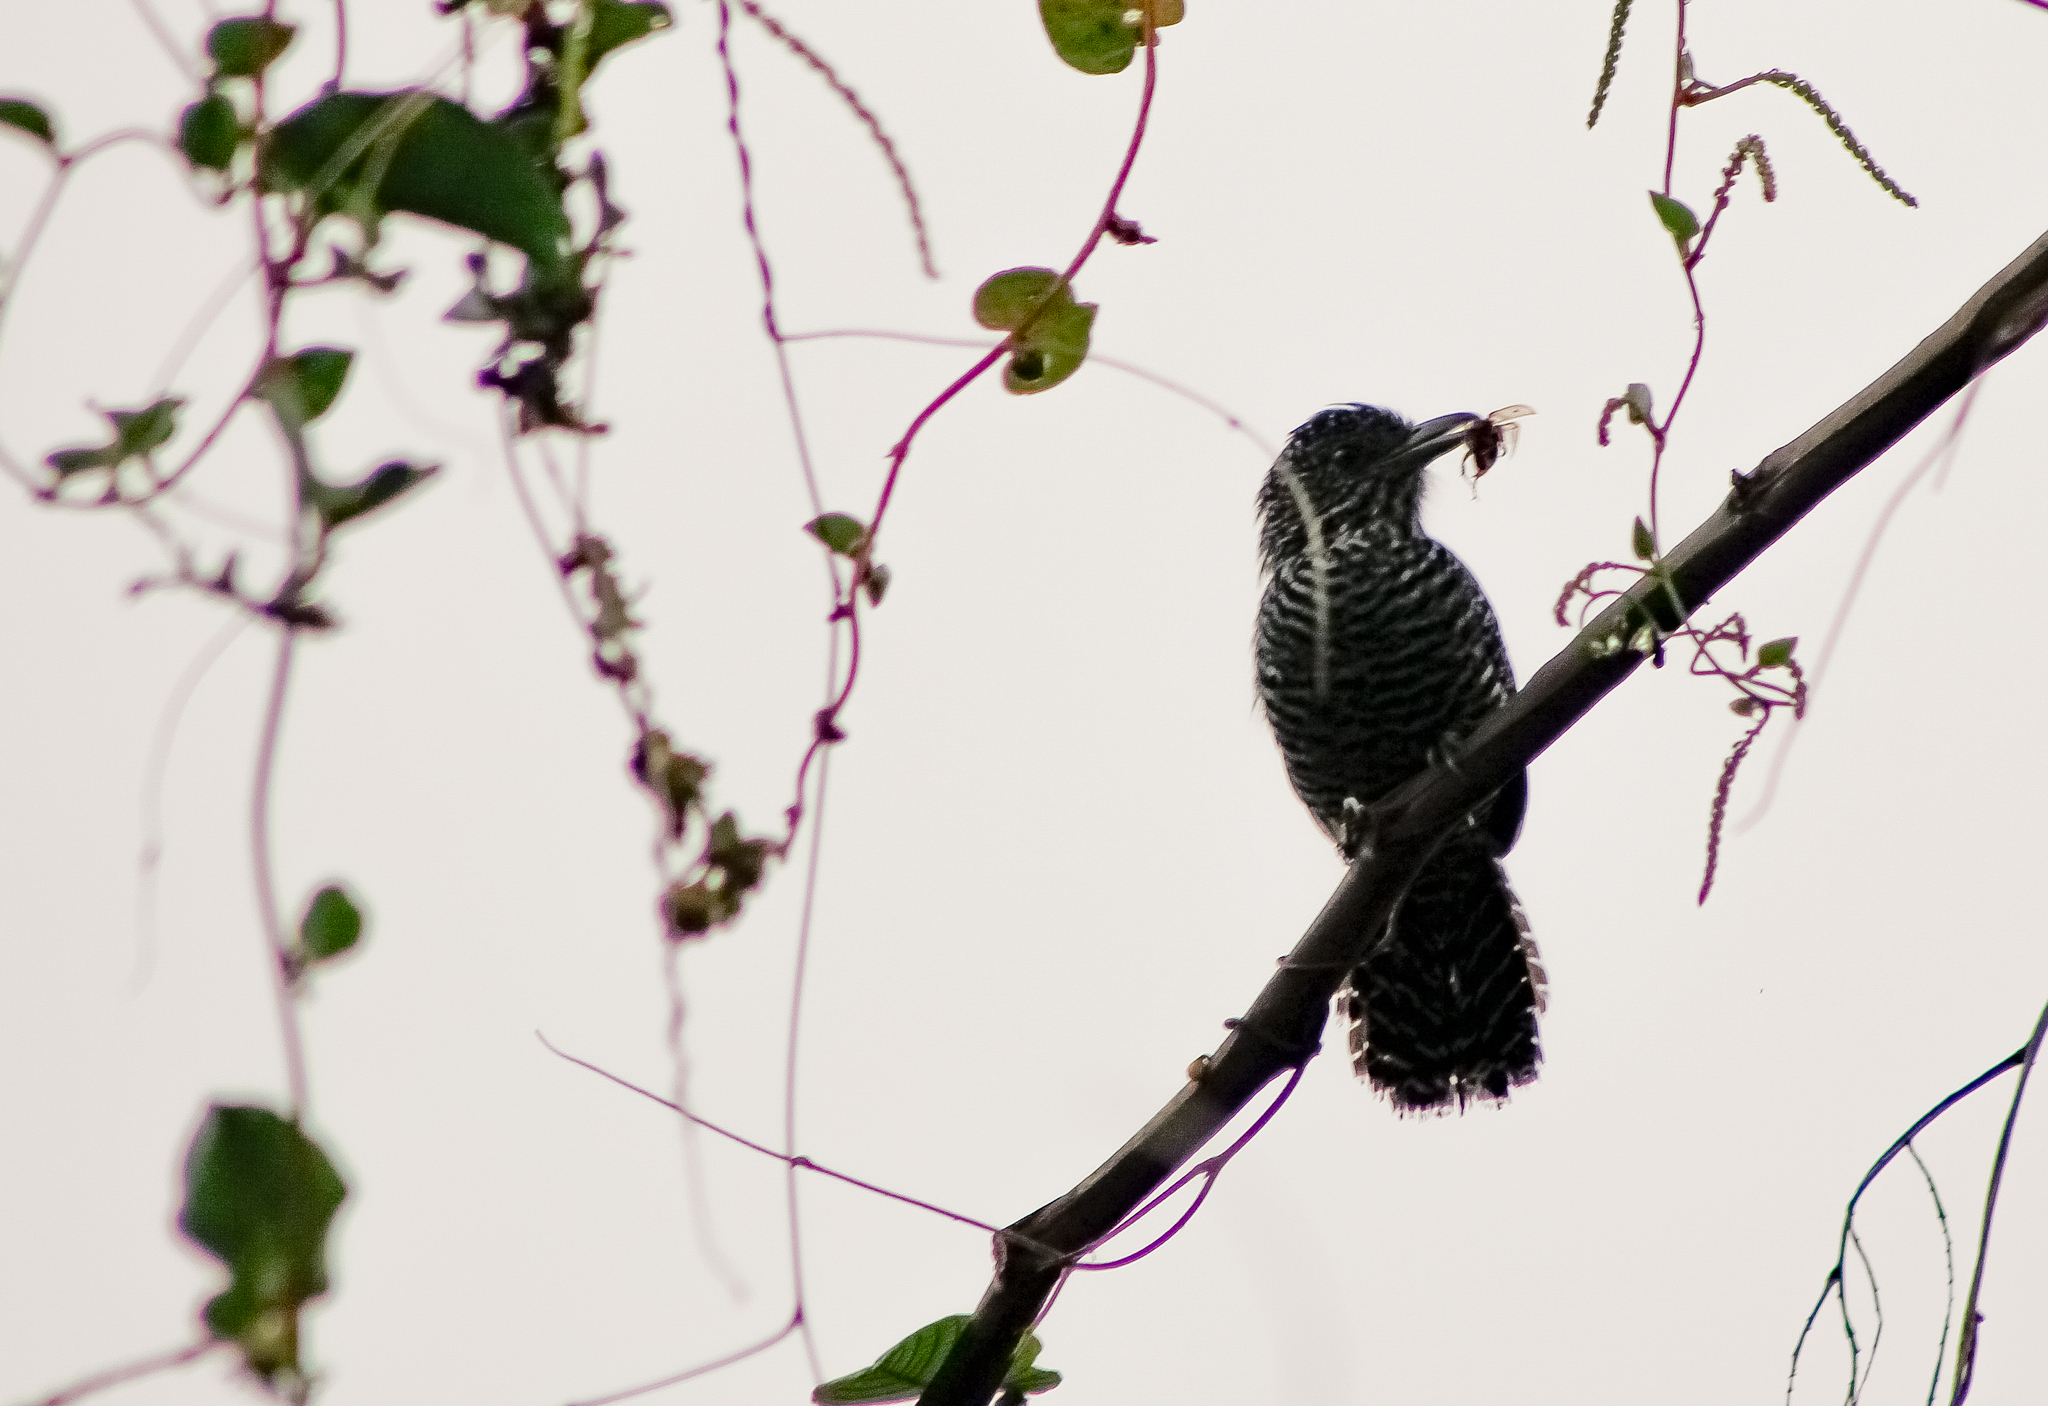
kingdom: Animalia
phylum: Chordata
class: Aves
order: Passeriformes
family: Thamnophilidae
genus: Thamnophilus
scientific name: Thamnophilus multistriatus
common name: Bar-crested antshrike
